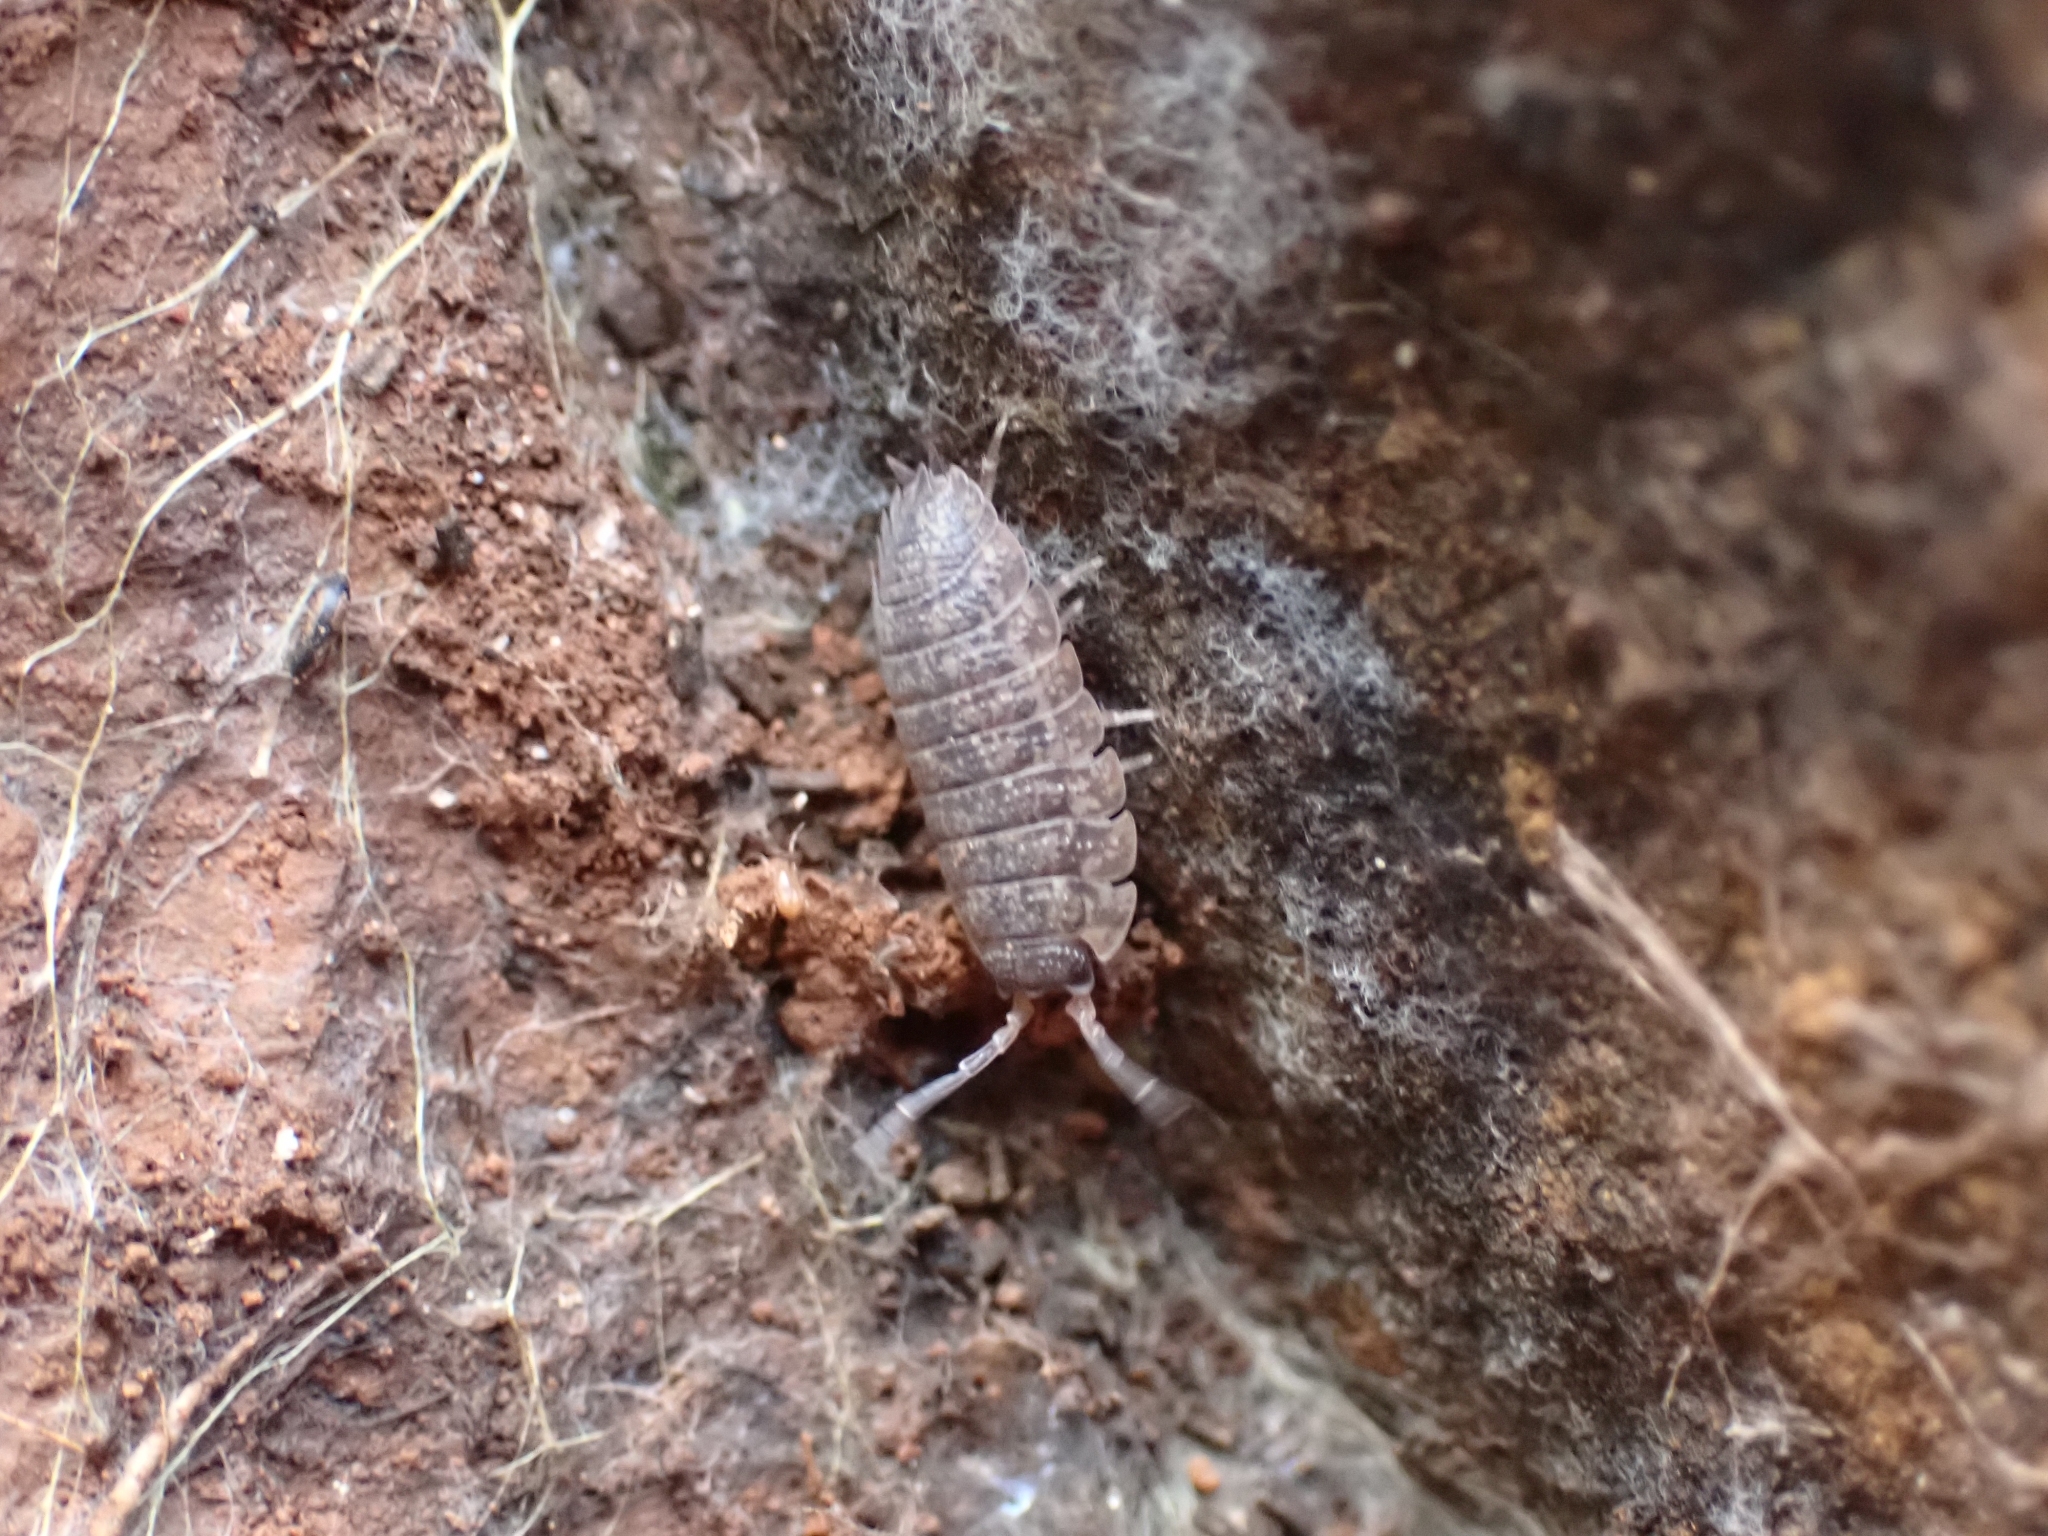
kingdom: Animalia
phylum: Arthropoda
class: Malacostraca
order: Isopoda
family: Porcellionidae
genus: Porcellio
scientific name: Porcellio scaber
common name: Common rough woodlouse
